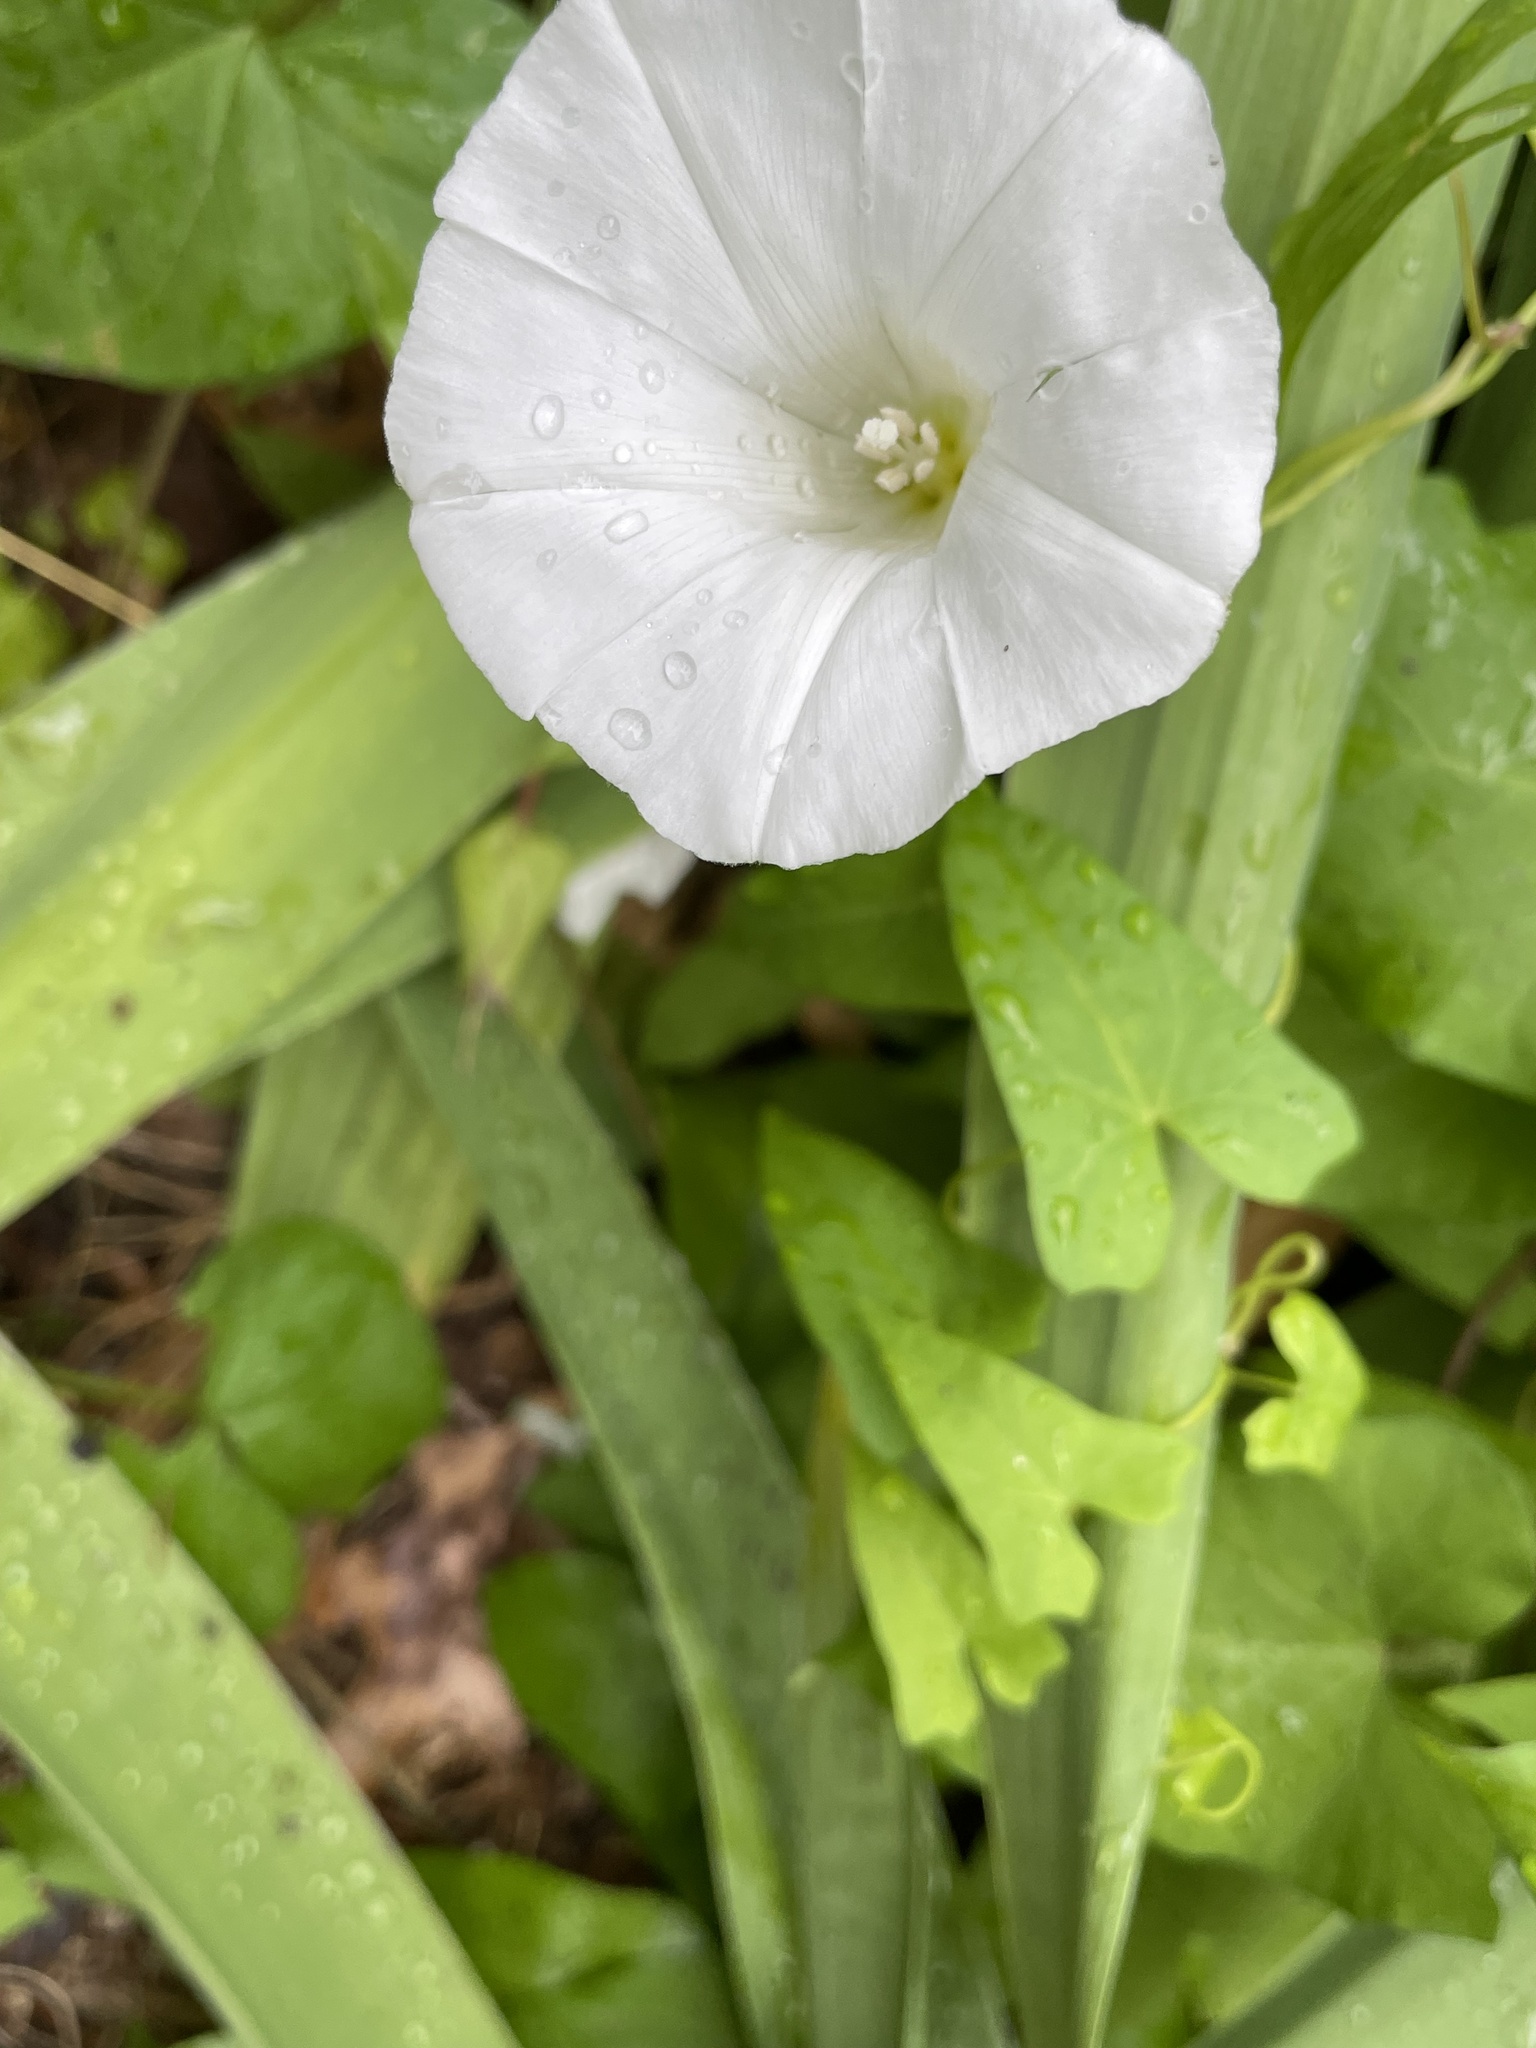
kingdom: Plantae
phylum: Tracheophyta
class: Magnoliopsida
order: Solanales
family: Convolvulaceae
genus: Calystegia
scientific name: Calystegia sepium
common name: Hedge bindweed
